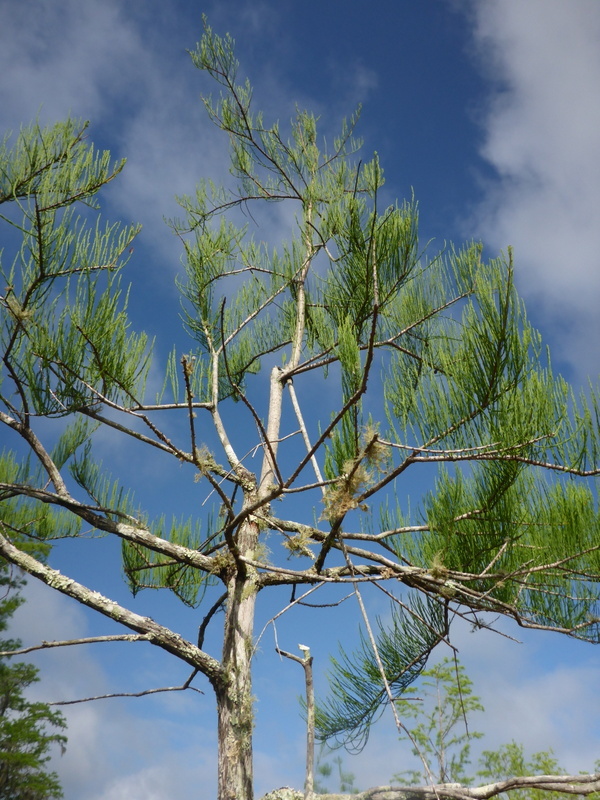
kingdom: Plantae
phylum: Tracheophyta
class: Pinopsida
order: Pinales
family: Cupressaceae
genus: Taxodium
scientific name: Taxodium distichum
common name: Bald cypress
